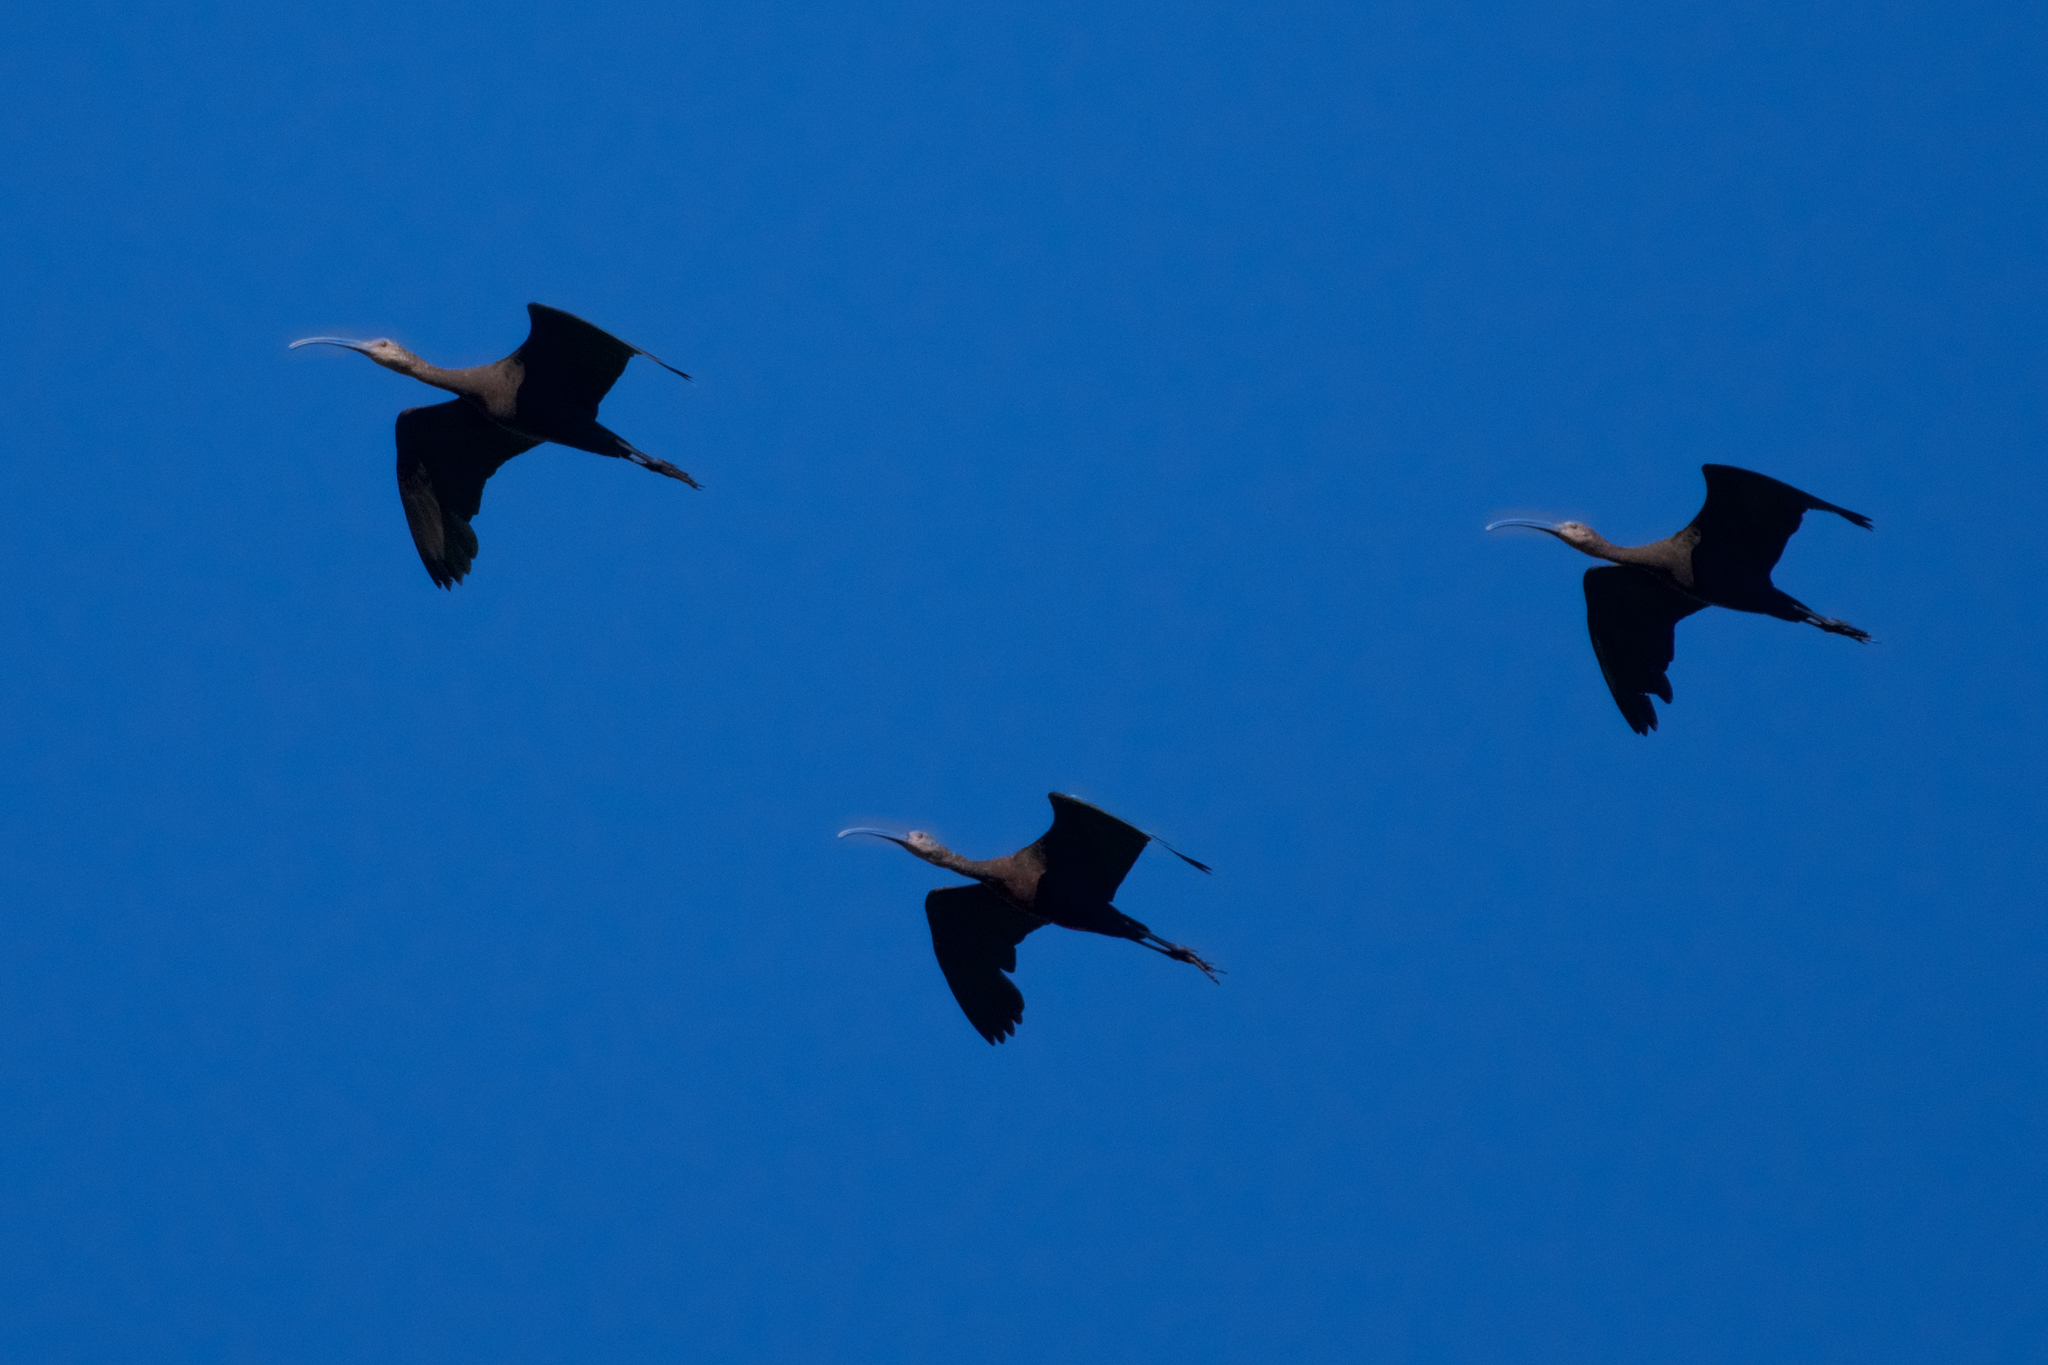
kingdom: Animalia
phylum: Chordata
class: Aves
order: Pelecaniformes
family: Threskiornithidae
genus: Plegadis
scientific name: Plegadis chihi
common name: White-faced ibis
